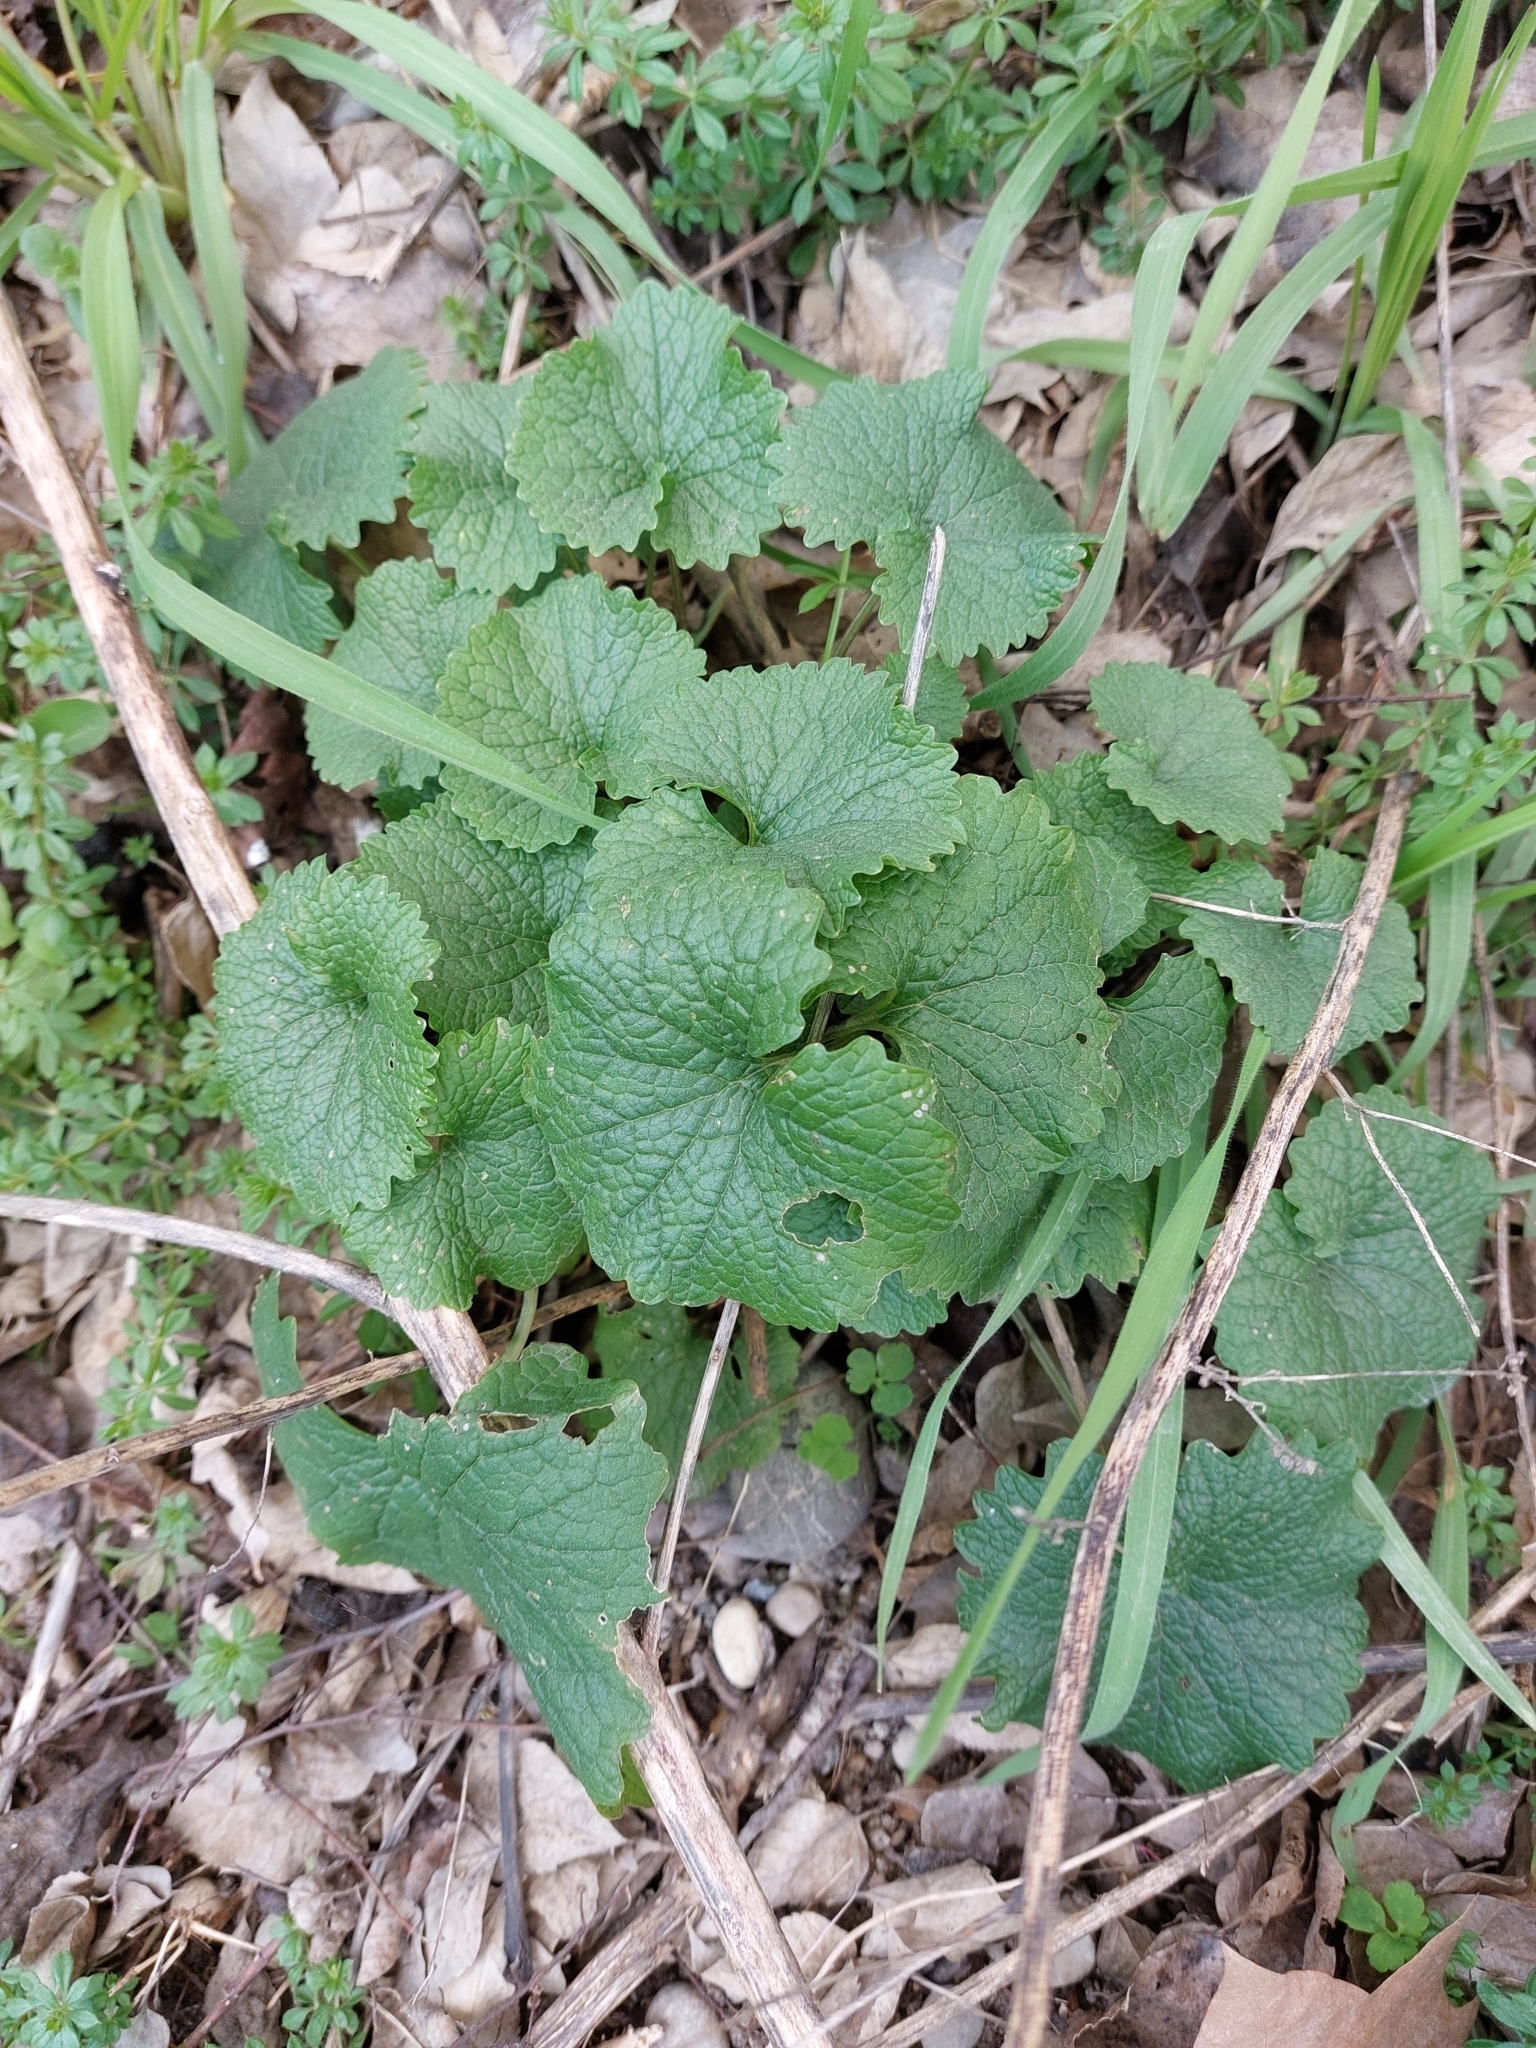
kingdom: Plantae
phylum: Tracheophyta
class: Magnoliopsida
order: Brassicales
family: Brassicaceae
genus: Alliaria
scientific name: Alliaria petiolata
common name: Garlic mustard
